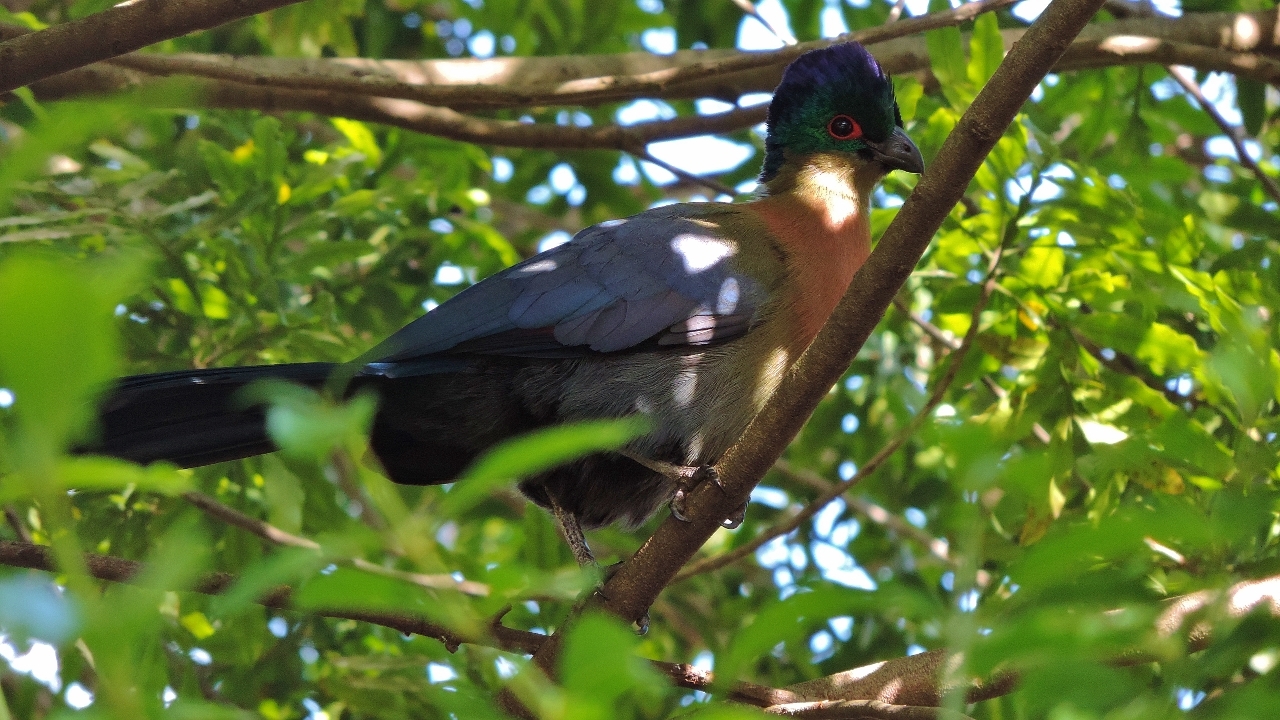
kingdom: Animalia
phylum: Chordata
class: Aves
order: Musophagiformes
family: Musophagidae
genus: Tauraco
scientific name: Tauraco porphyreolophus
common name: Purple-crested turaco
